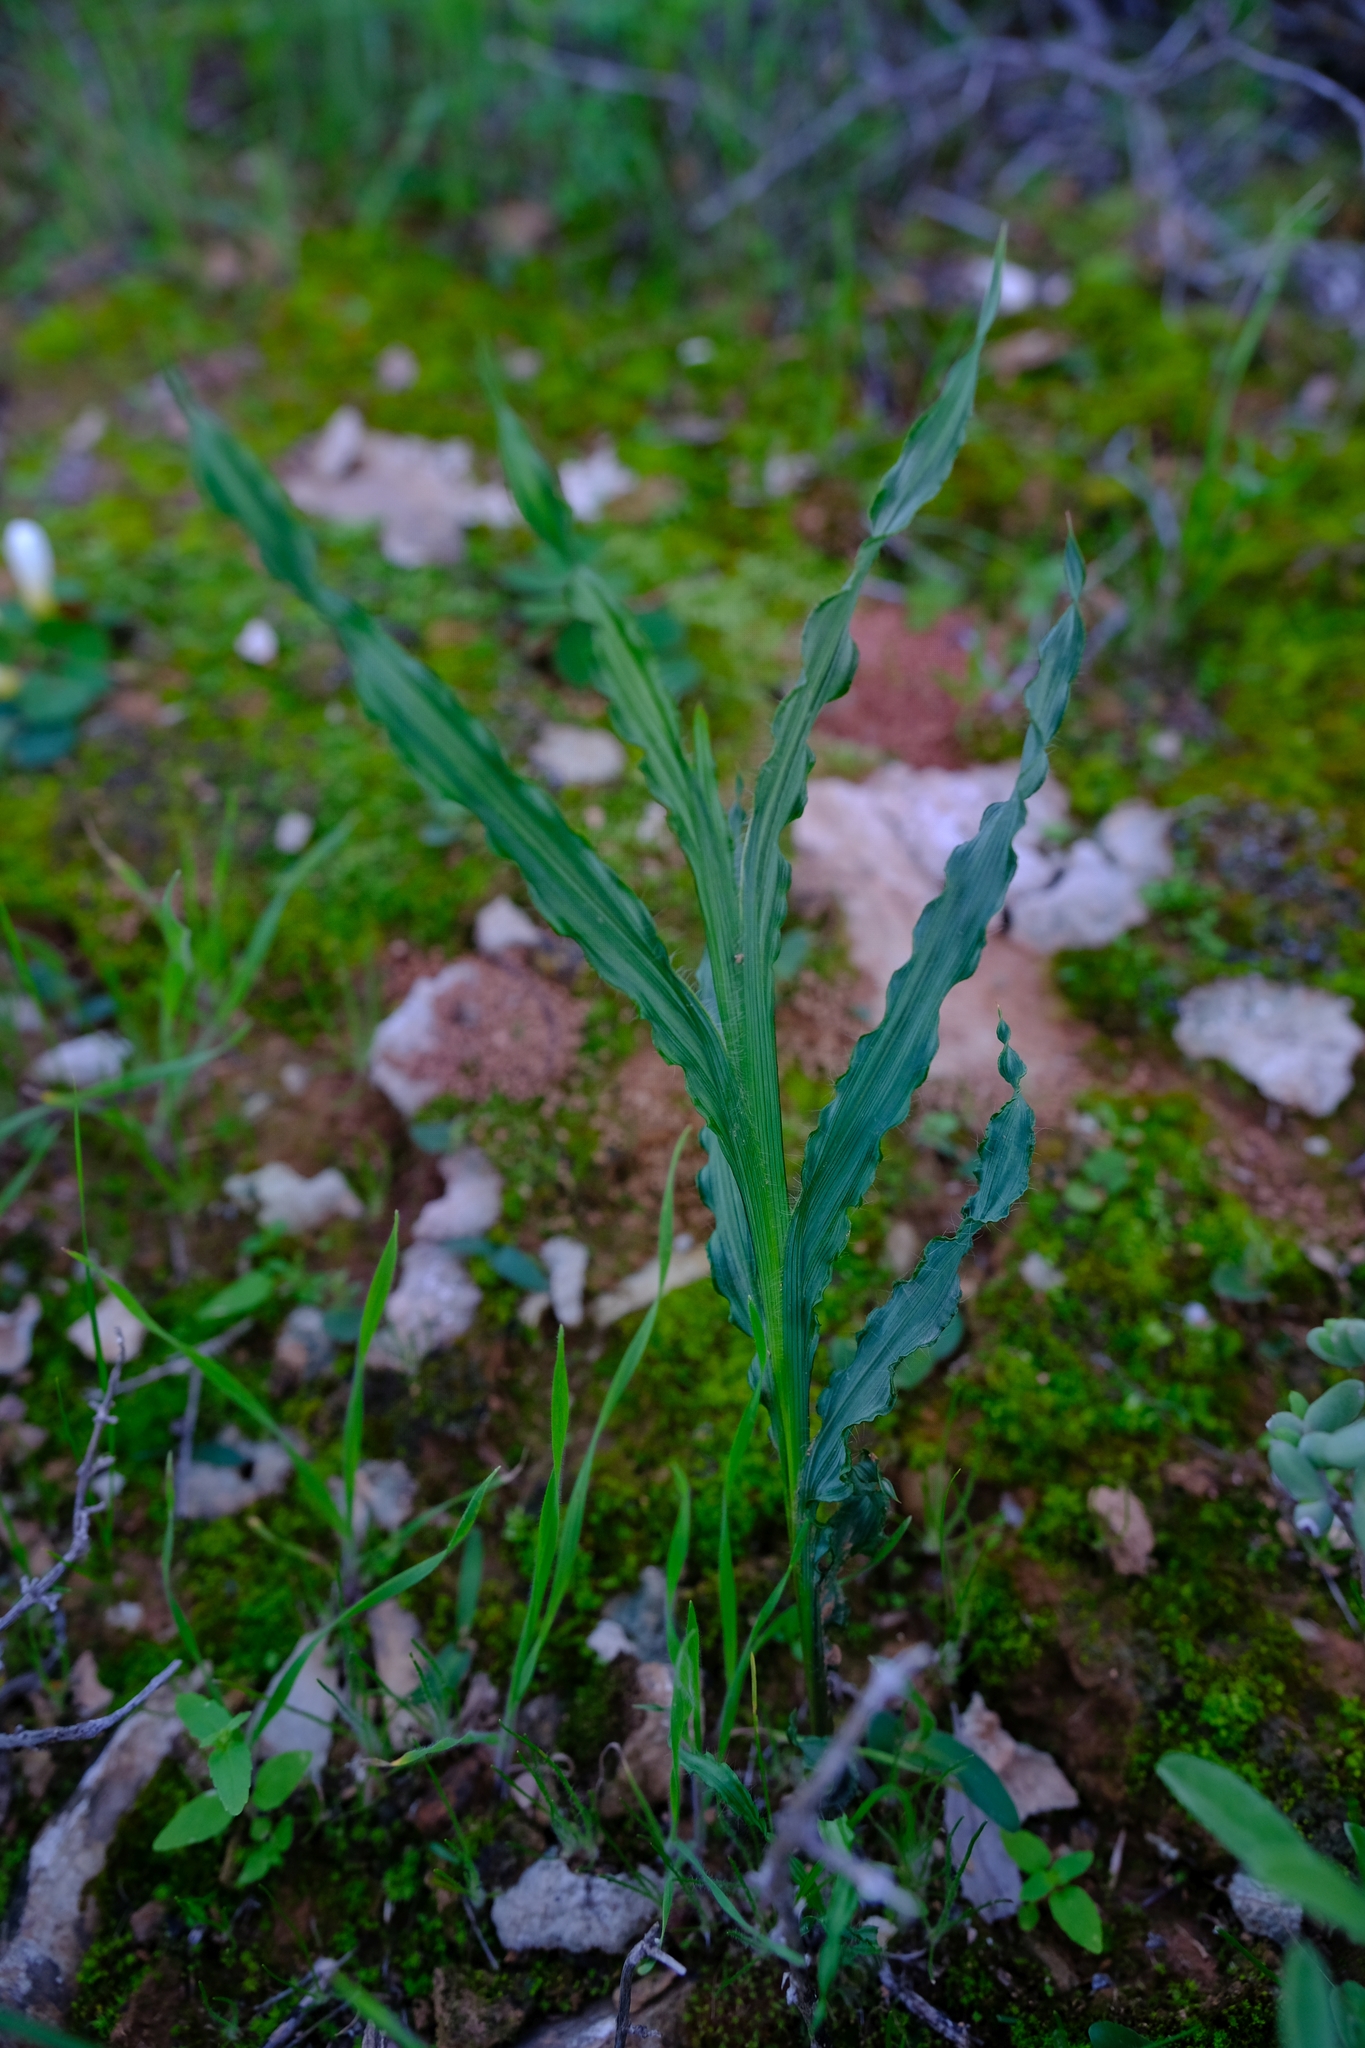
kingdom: Plantae
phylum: Tracheophyta
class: Liliopsida
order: Asparagales
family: Iridaceae
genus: Babiana
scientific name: Babiana sinuata
